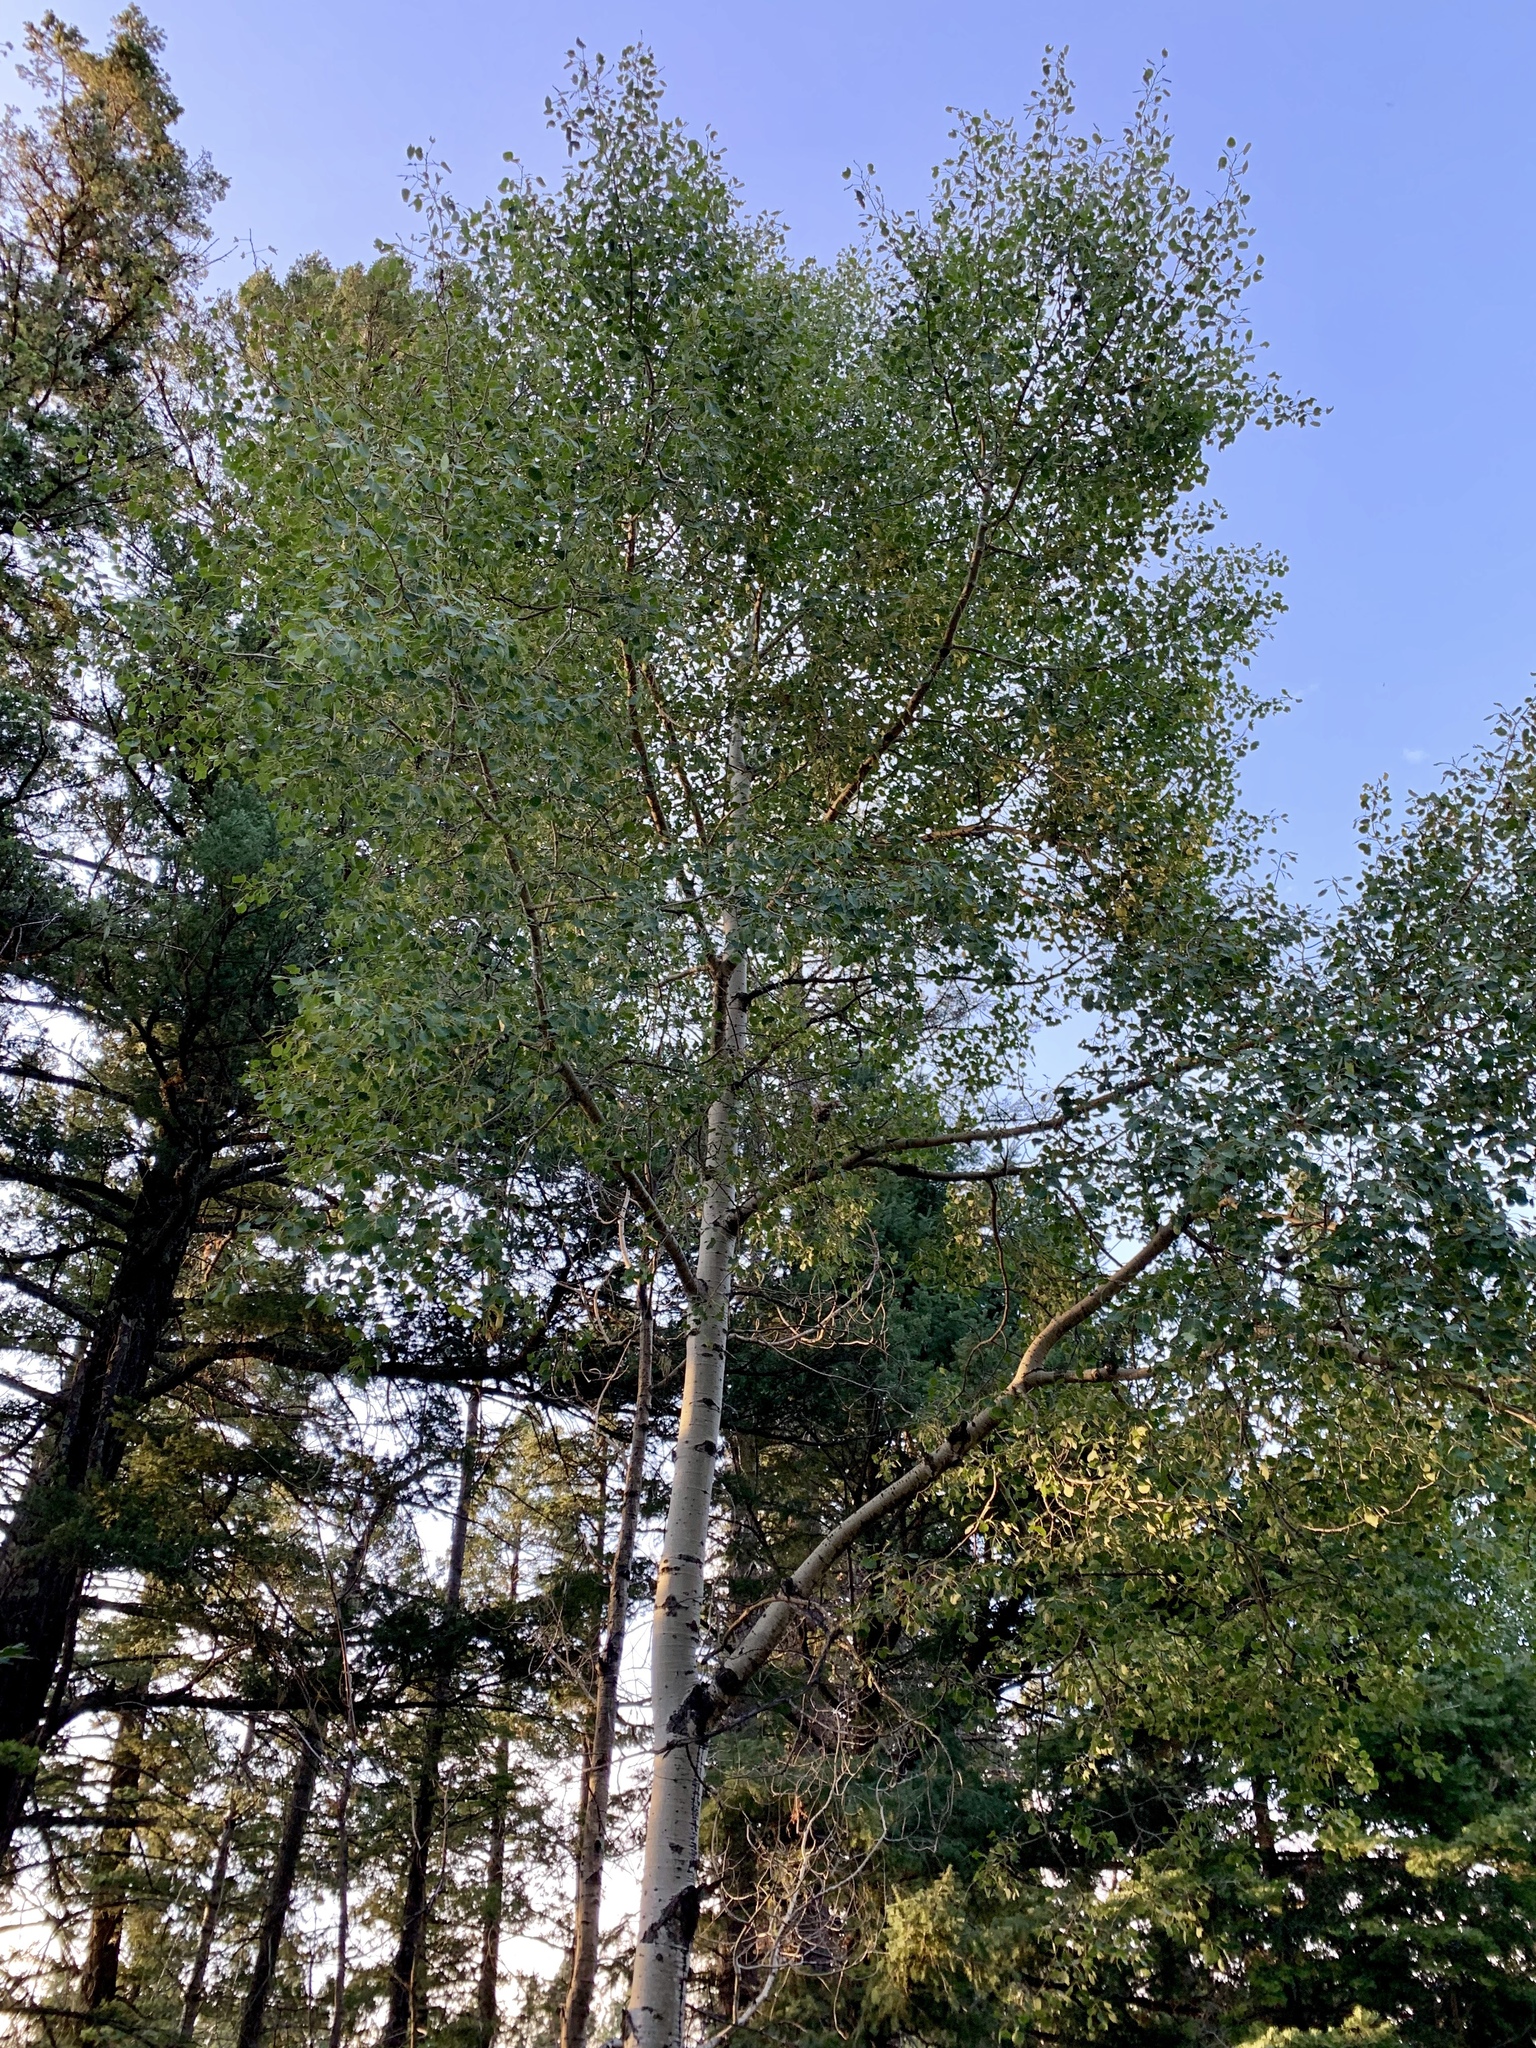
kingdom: Plantae
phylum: Tracheophyta
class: Magnoliopsida
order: Malpighiales
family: Salicaceae
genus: Populus
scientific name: Populus tremuloides
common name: Quaking aspen
